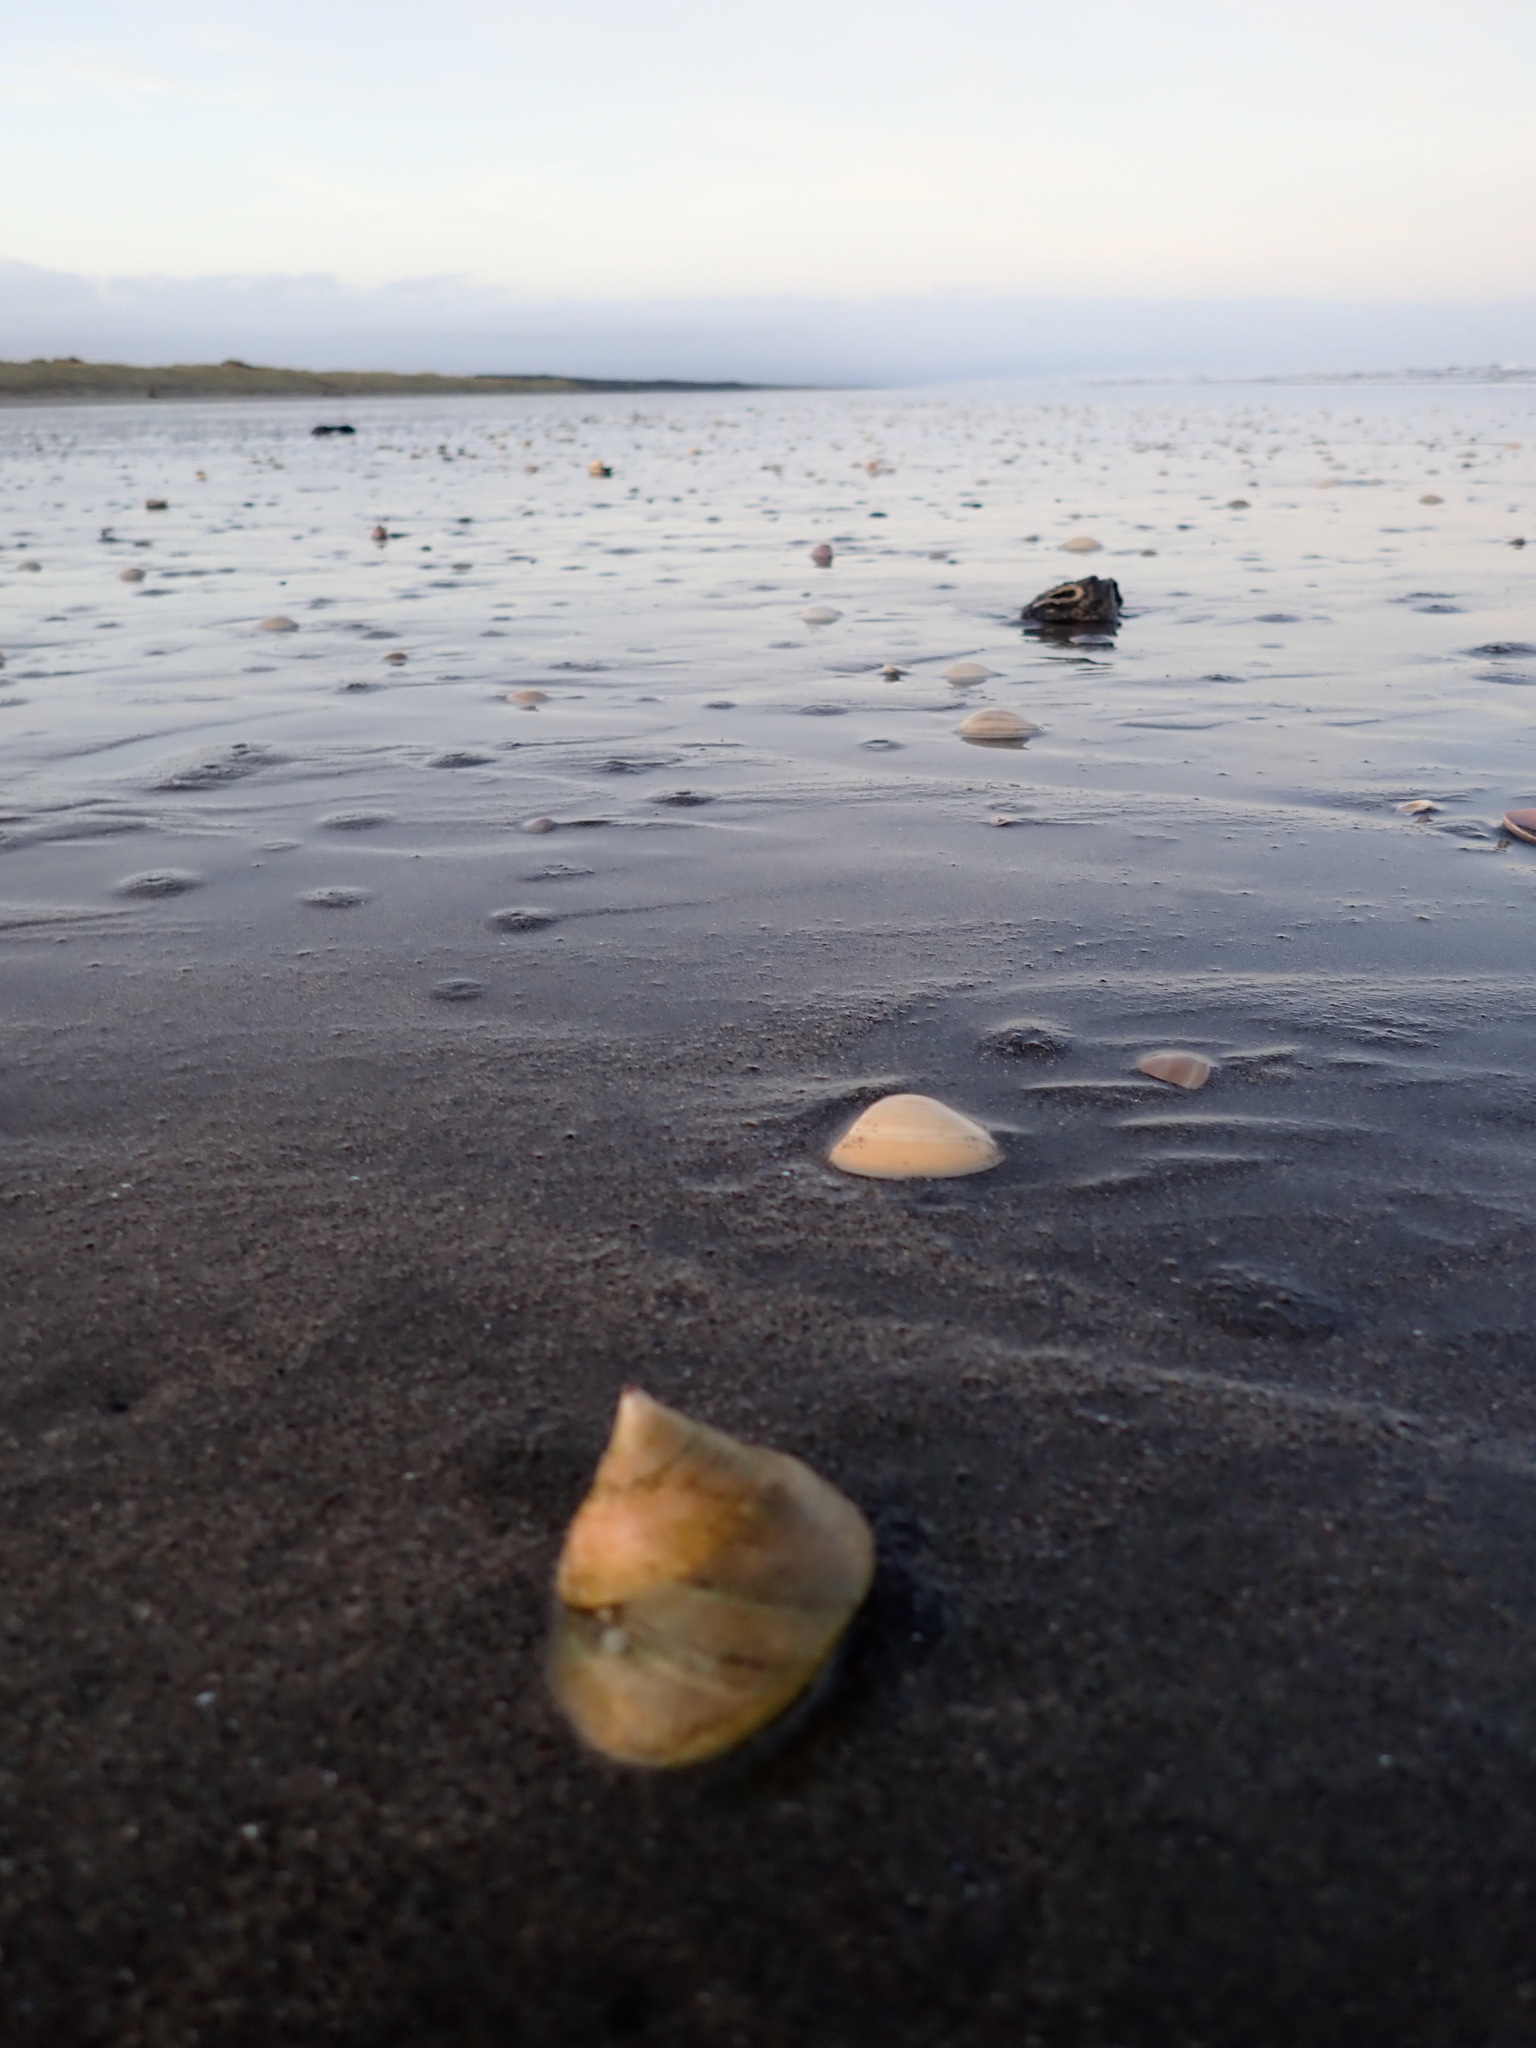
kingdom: Animalia
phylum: Mollusca
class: Gastropoda
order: Trochida
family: Calliostomatidae
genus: Maurea
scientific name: Maurea selecta
